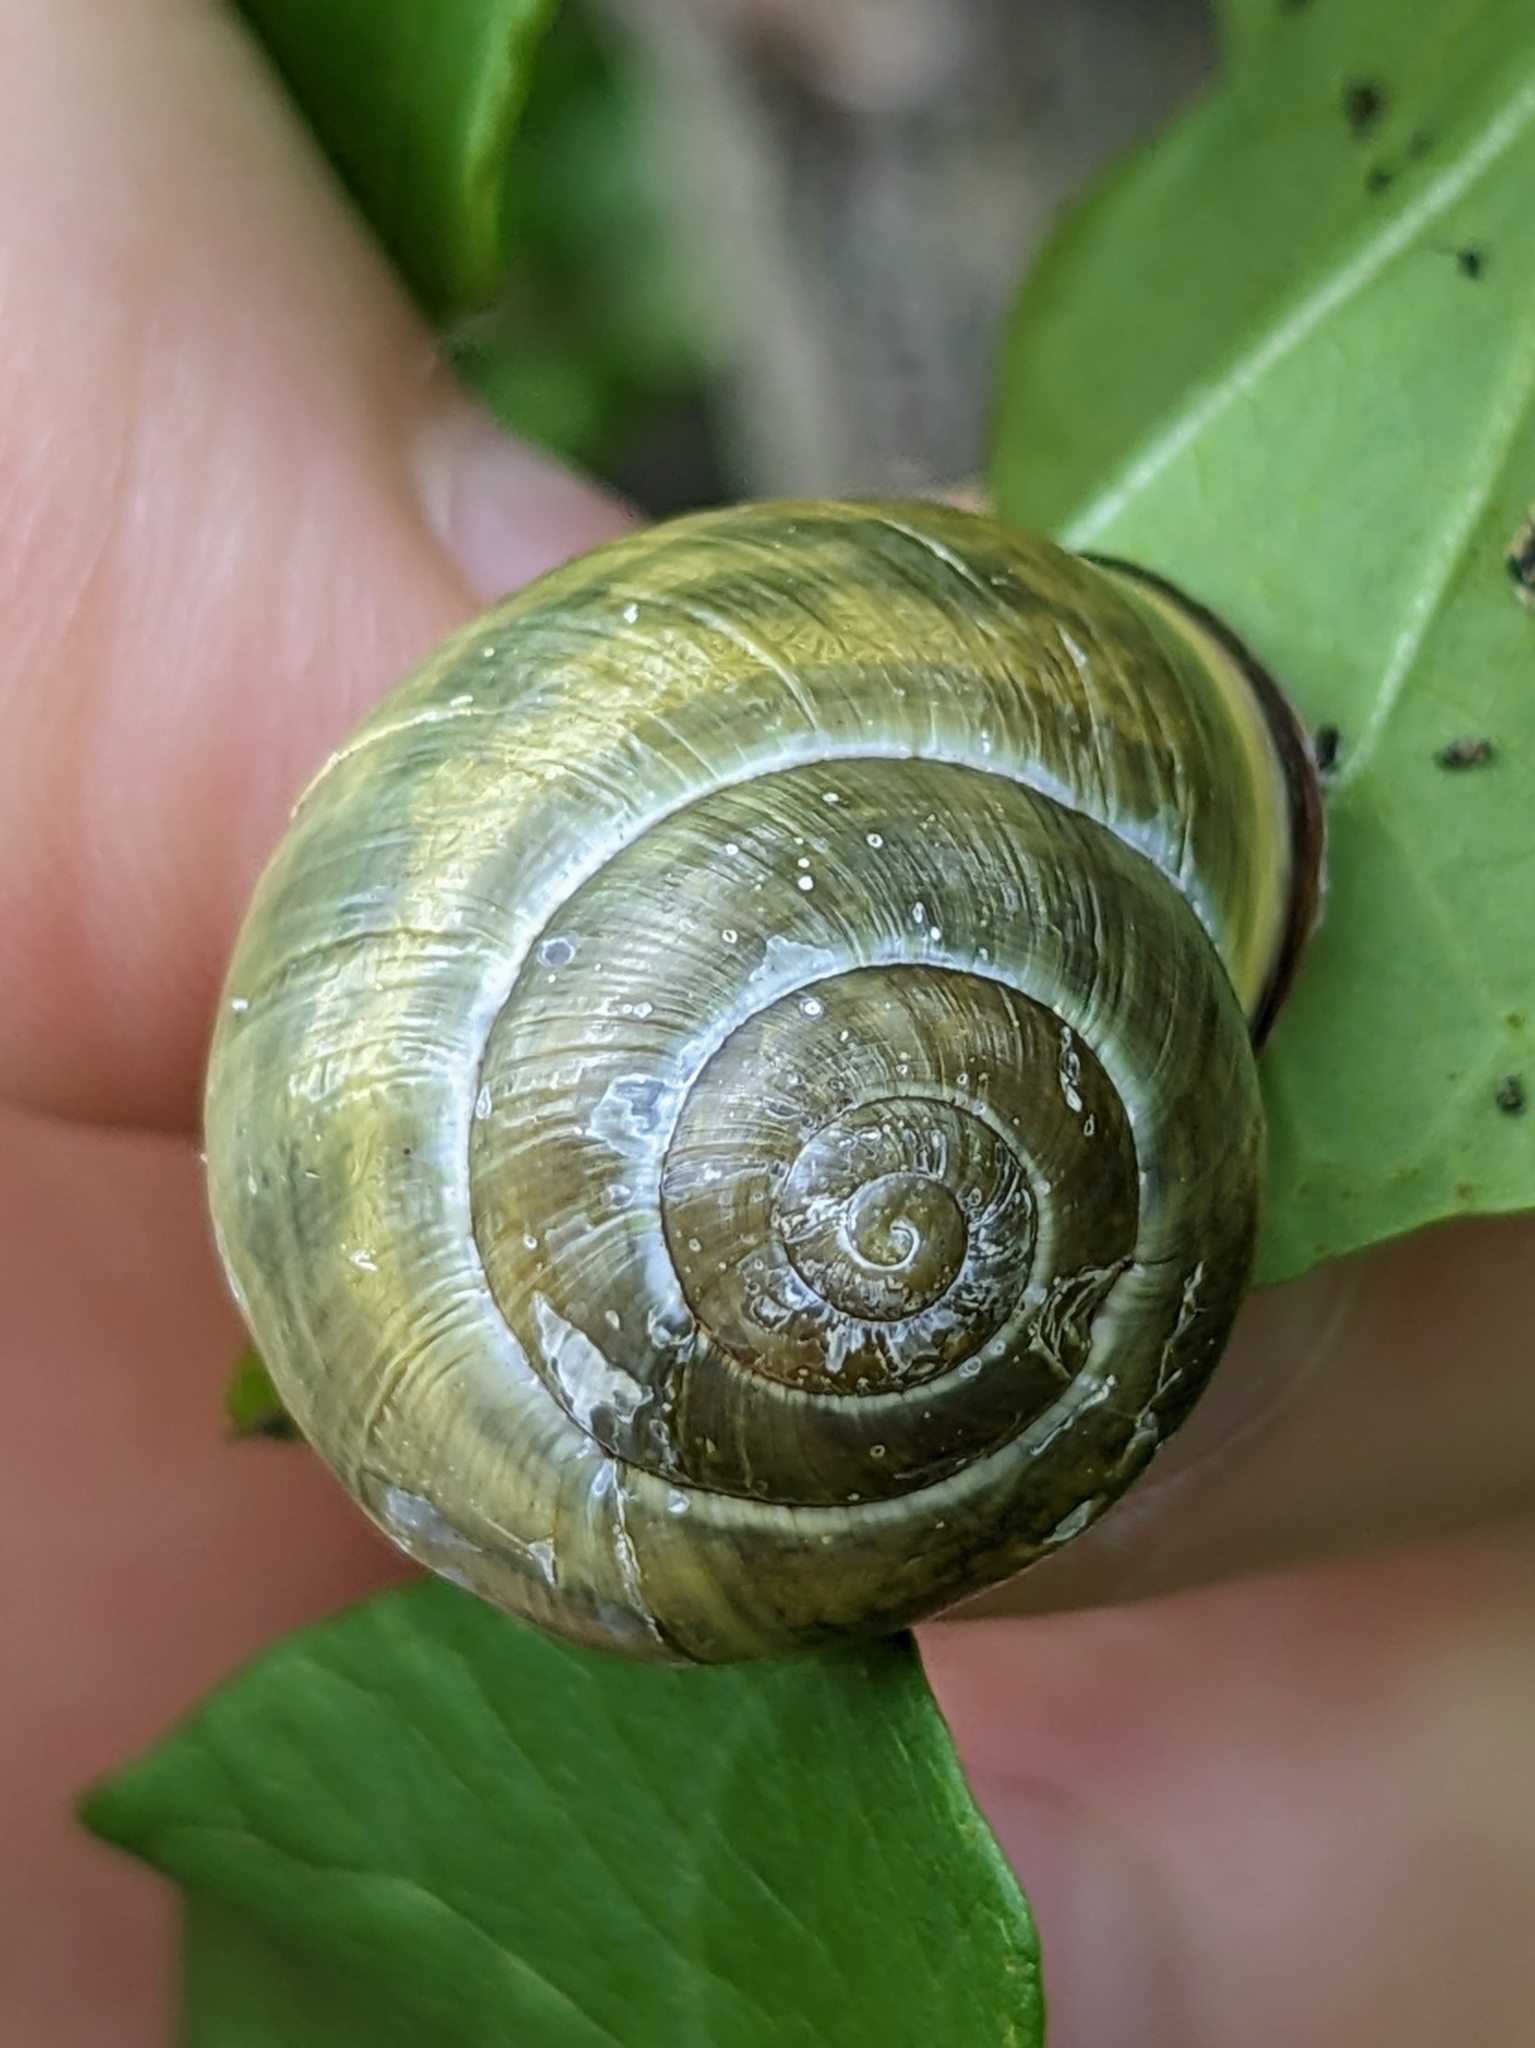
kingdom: Animalia
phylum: Mollusca
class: Gastropoda
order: Stylommatophora
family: Helicidae
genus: Cepaea
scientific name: Cepaea nemoralis
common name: Grovesnail
